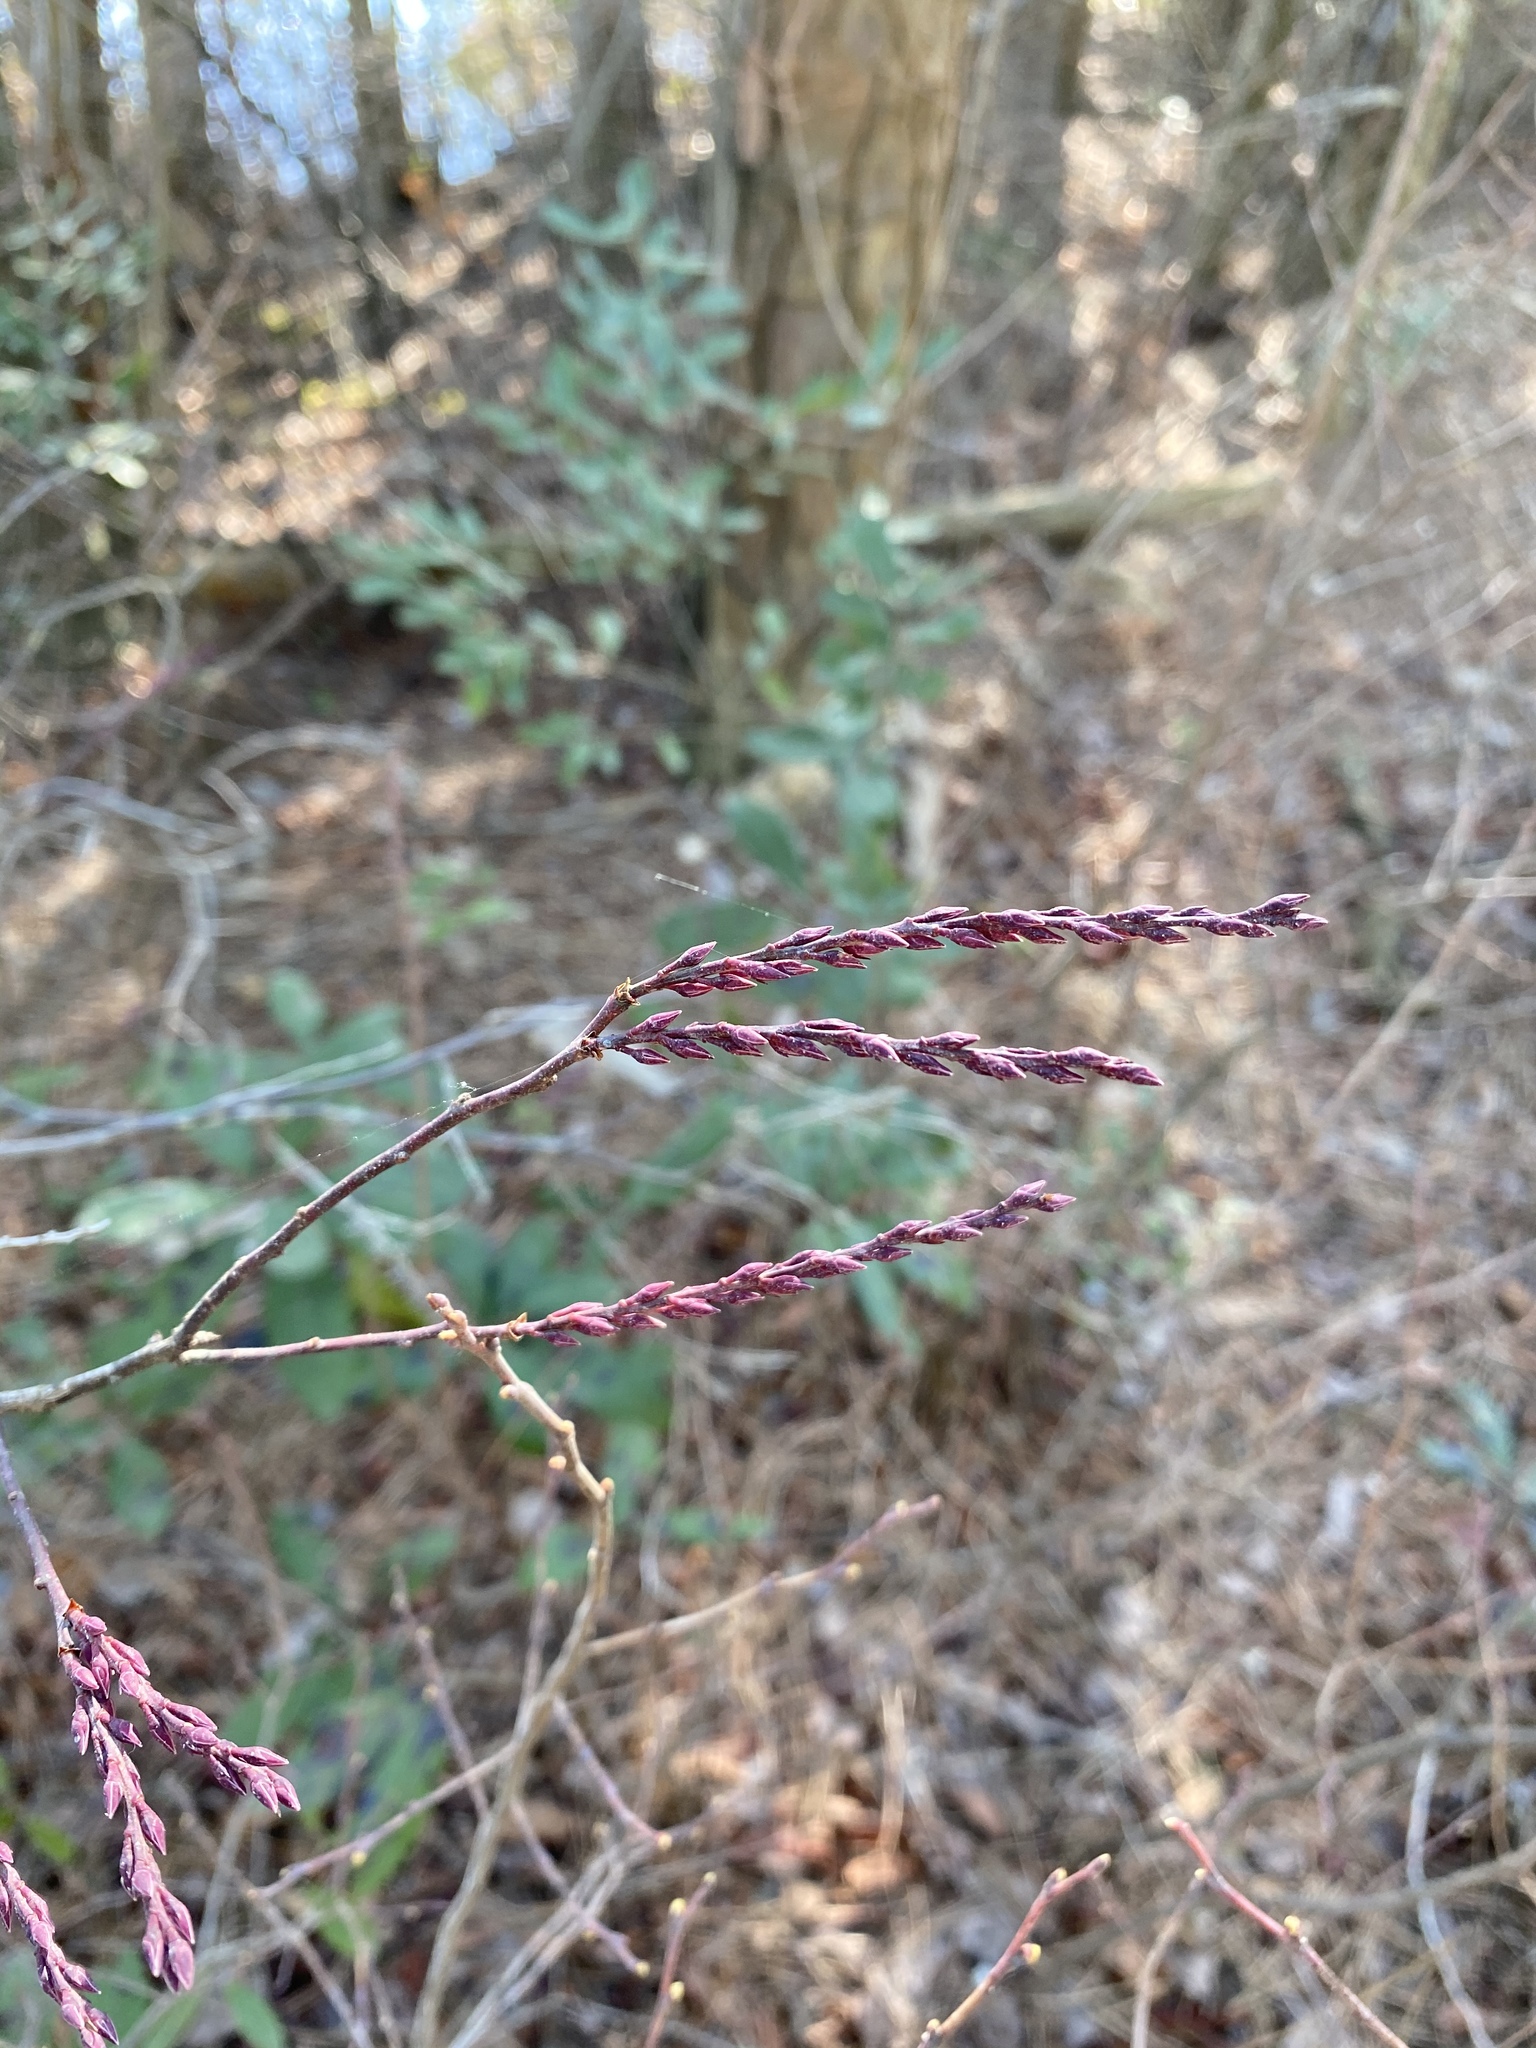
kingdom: Plantae
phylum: Tracheophyta
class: Magnoliopsida
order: Ericales
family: Ericaceae
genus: Eubotrys
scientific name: Eubotrys racemosa
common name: Fetterbush
